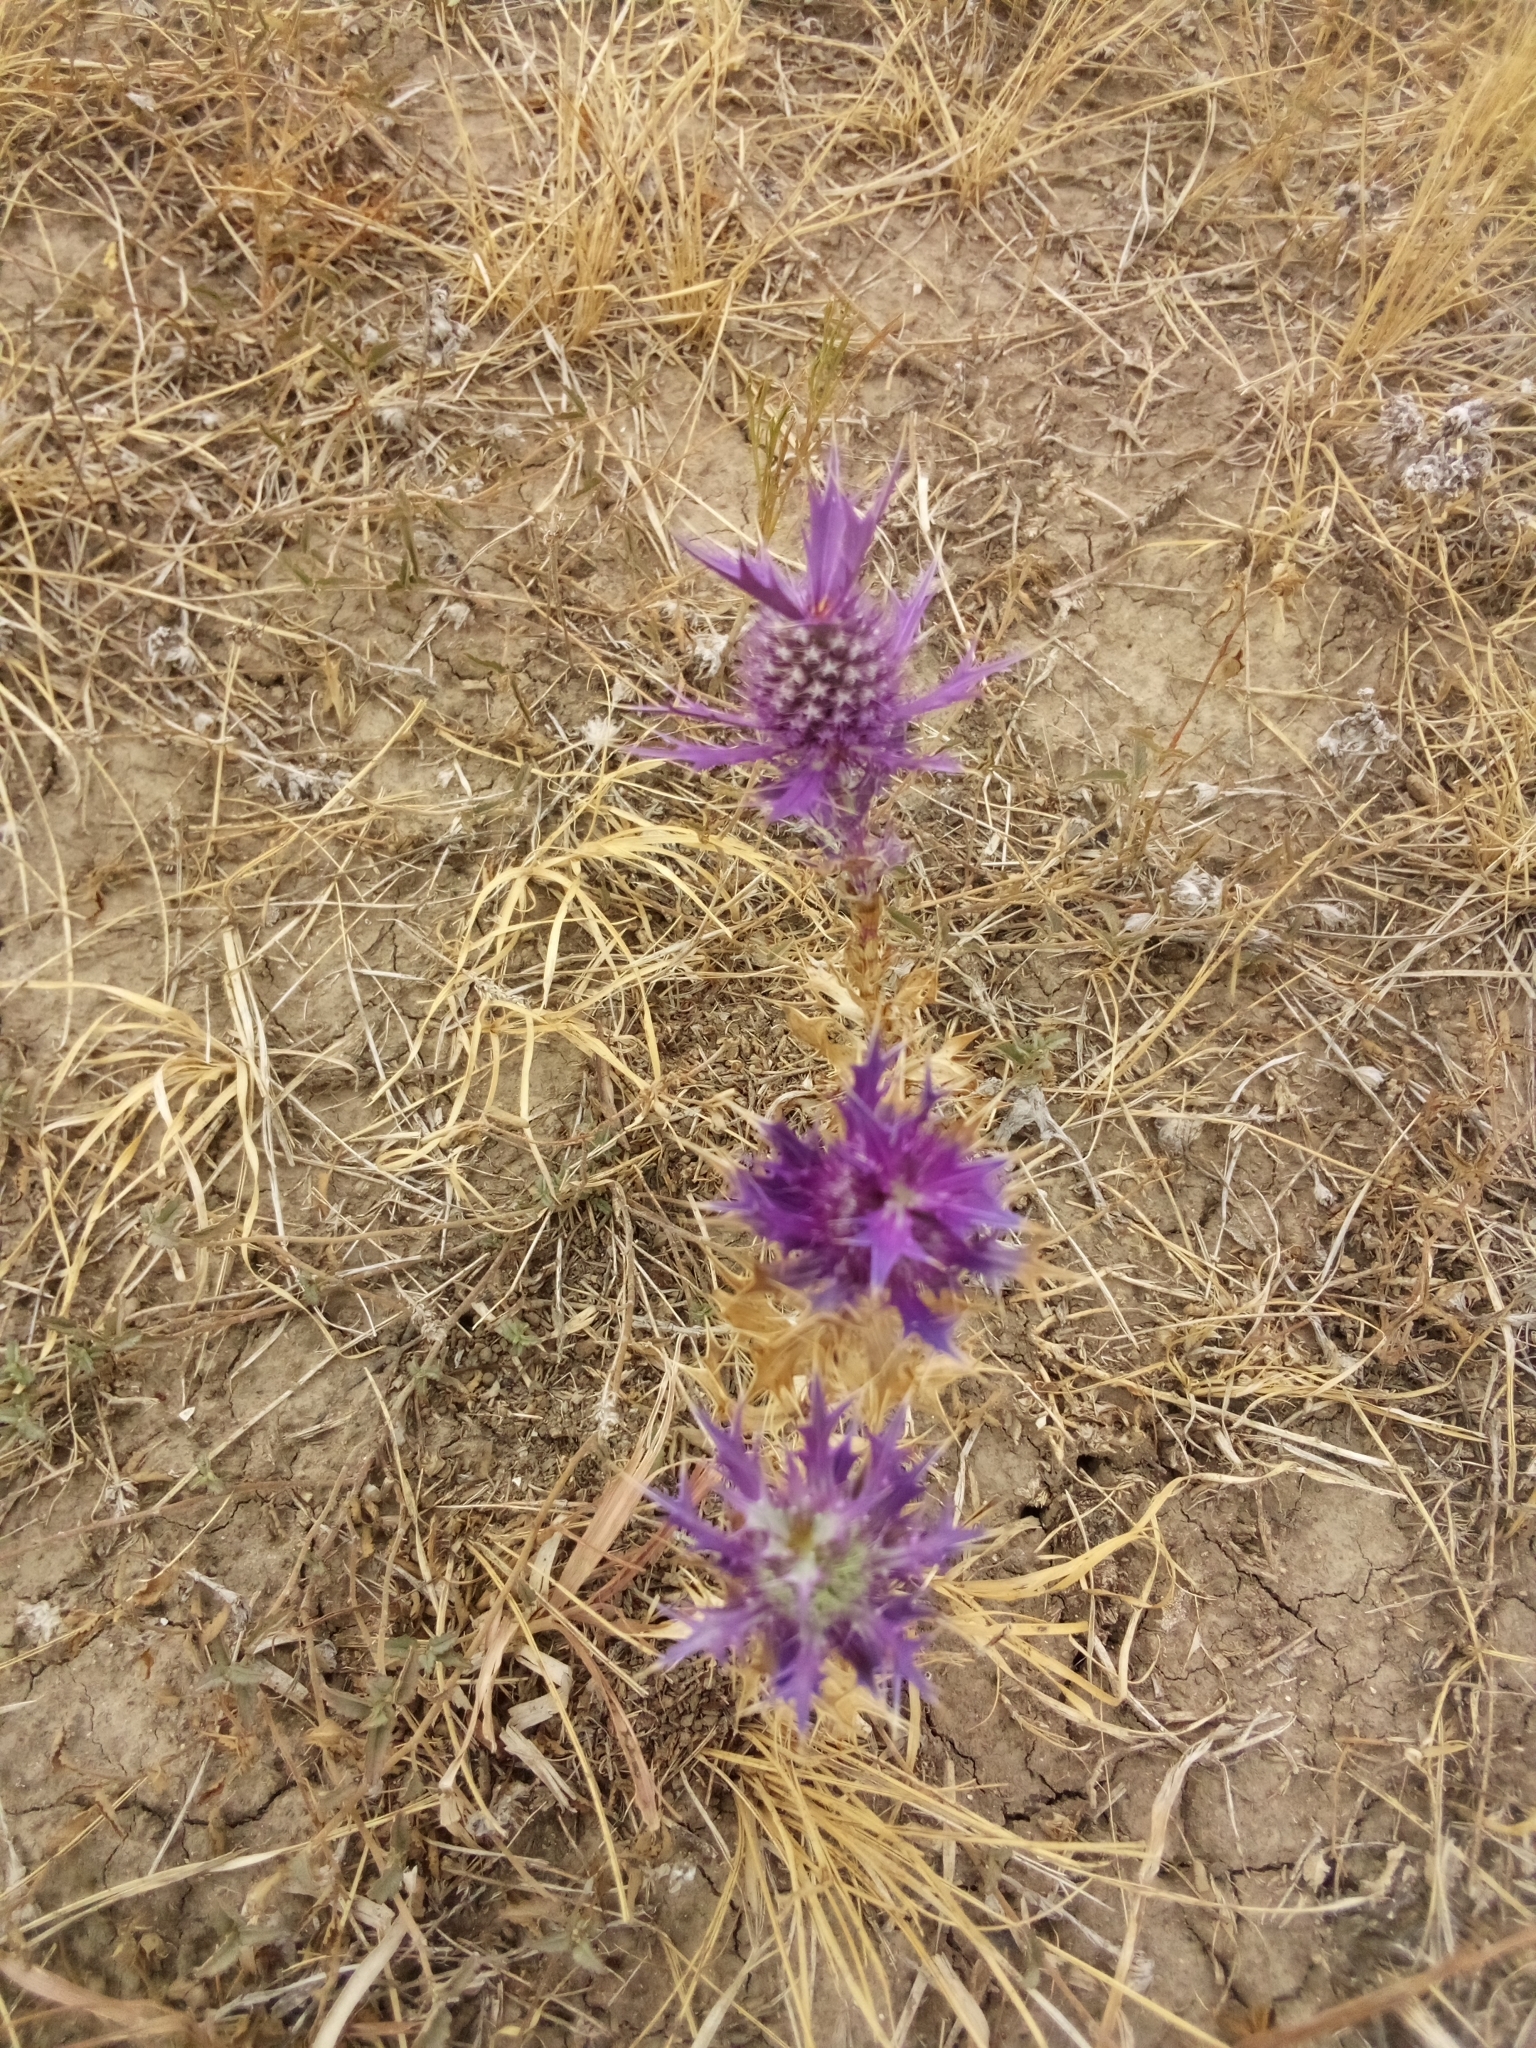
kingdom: Plantae
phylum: Tracheophyta
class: Magnoliopsida
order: Apiales
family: Apiaceae
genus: Eryngium
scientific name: Eryngium leavenworthii
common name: Leavenworth's eryngo
